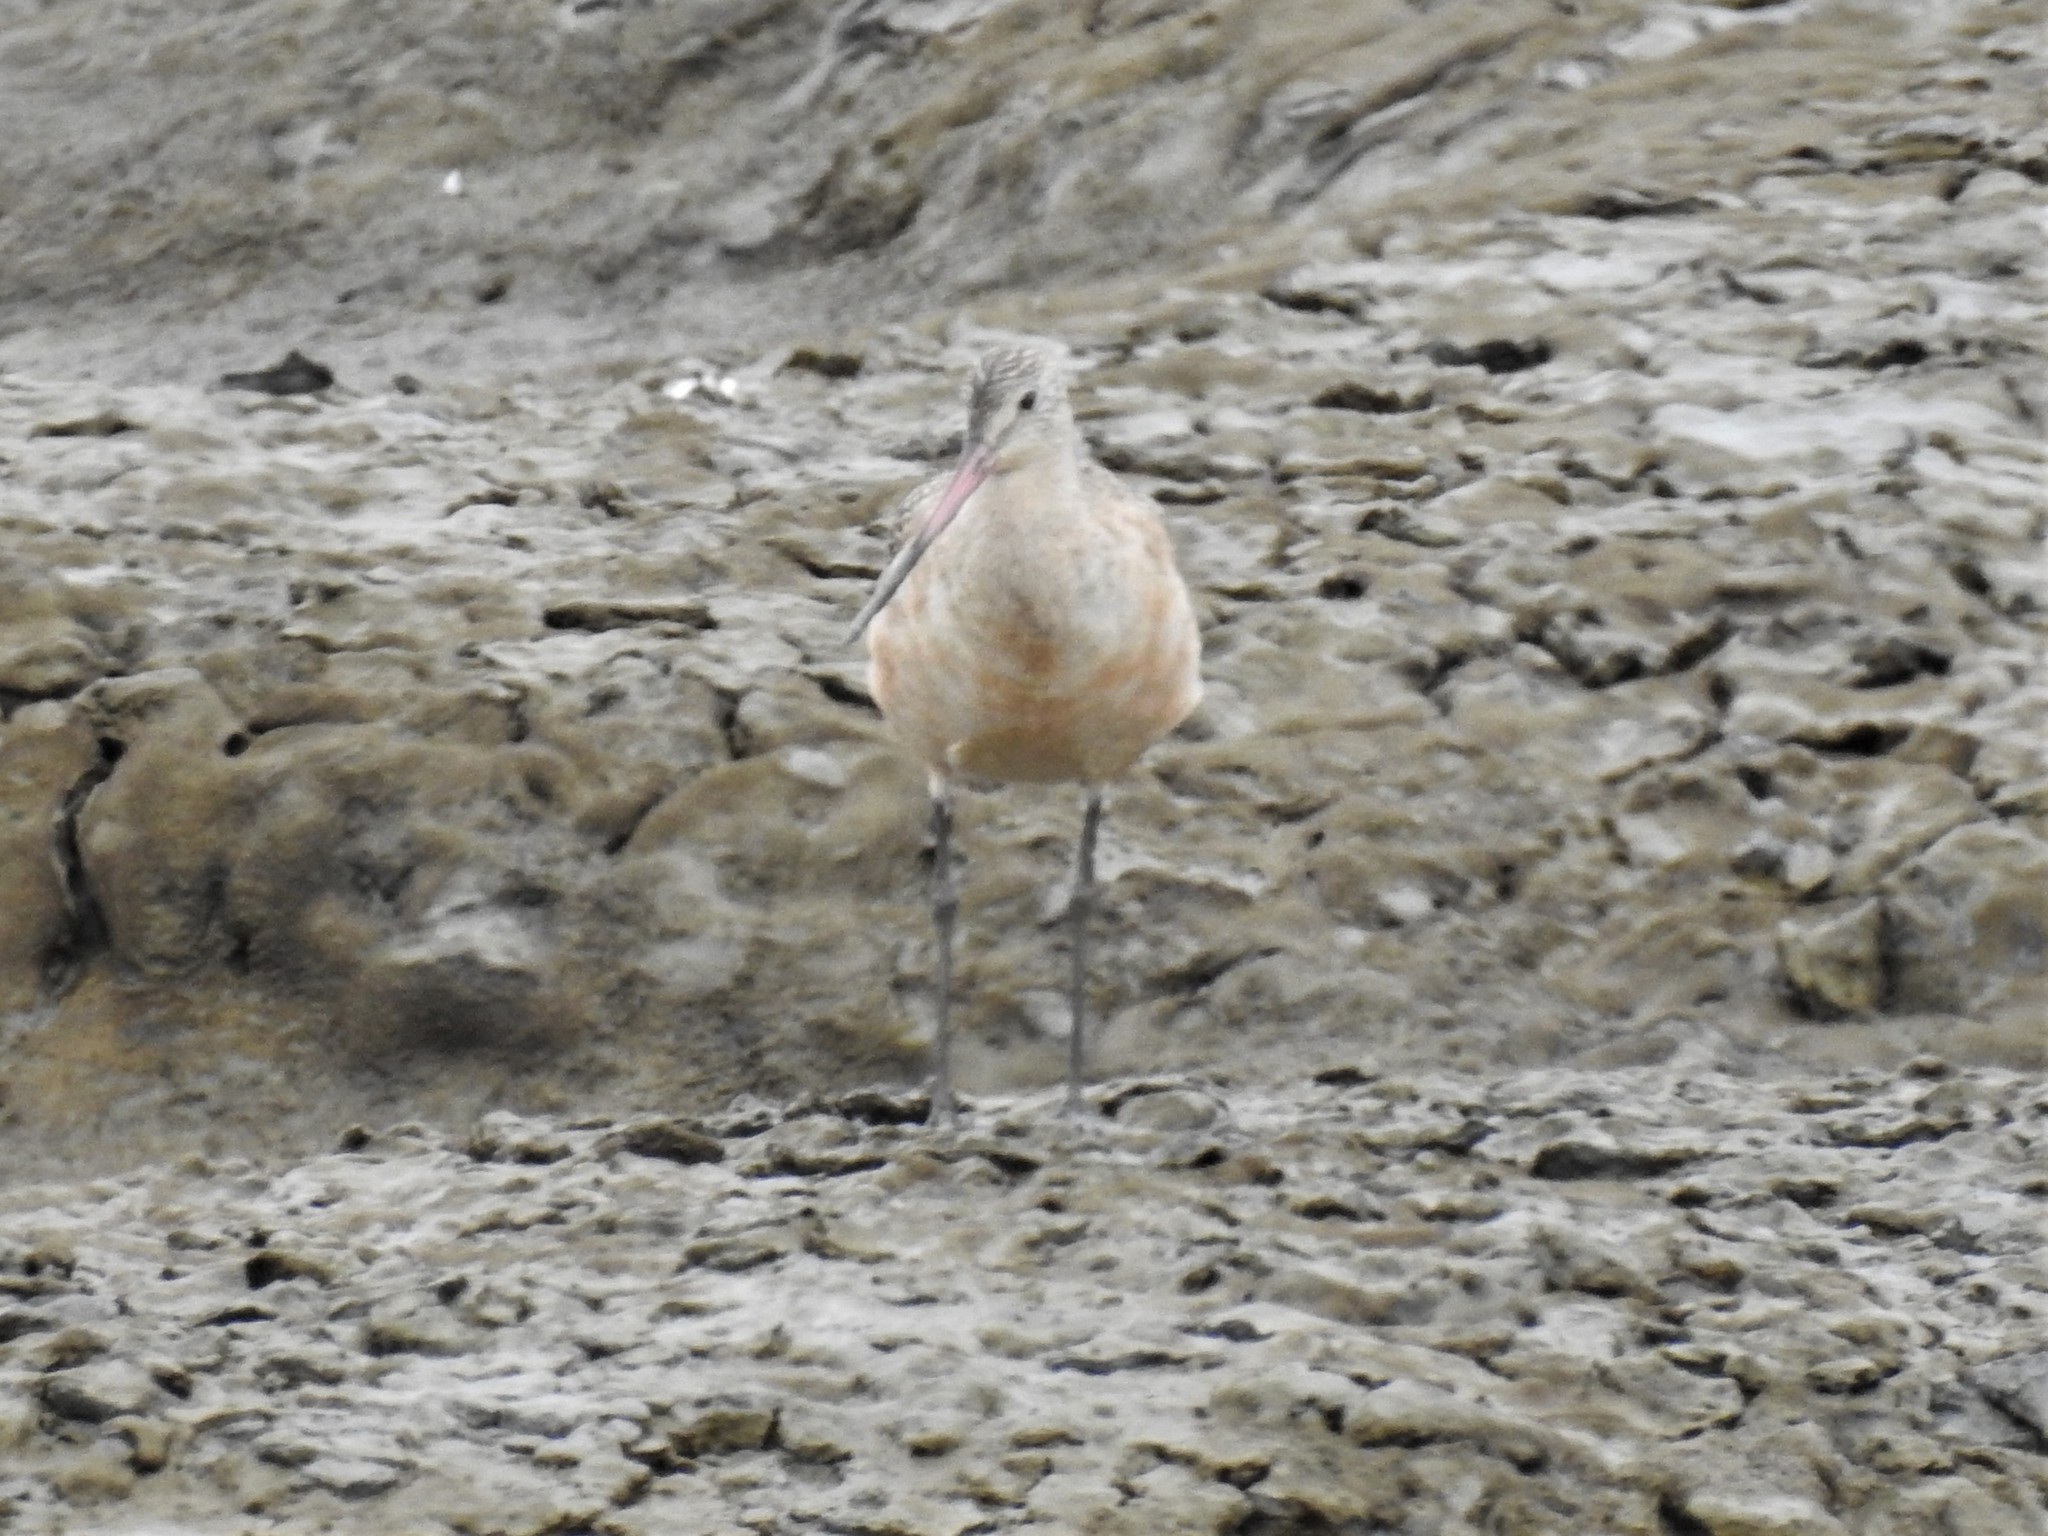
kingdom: Animalia
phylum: Chordata
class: Aves
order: Charadriiformes
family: Scolopacidae
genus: Limosa
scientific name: Limosa fedoa
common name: Marbled godwit
